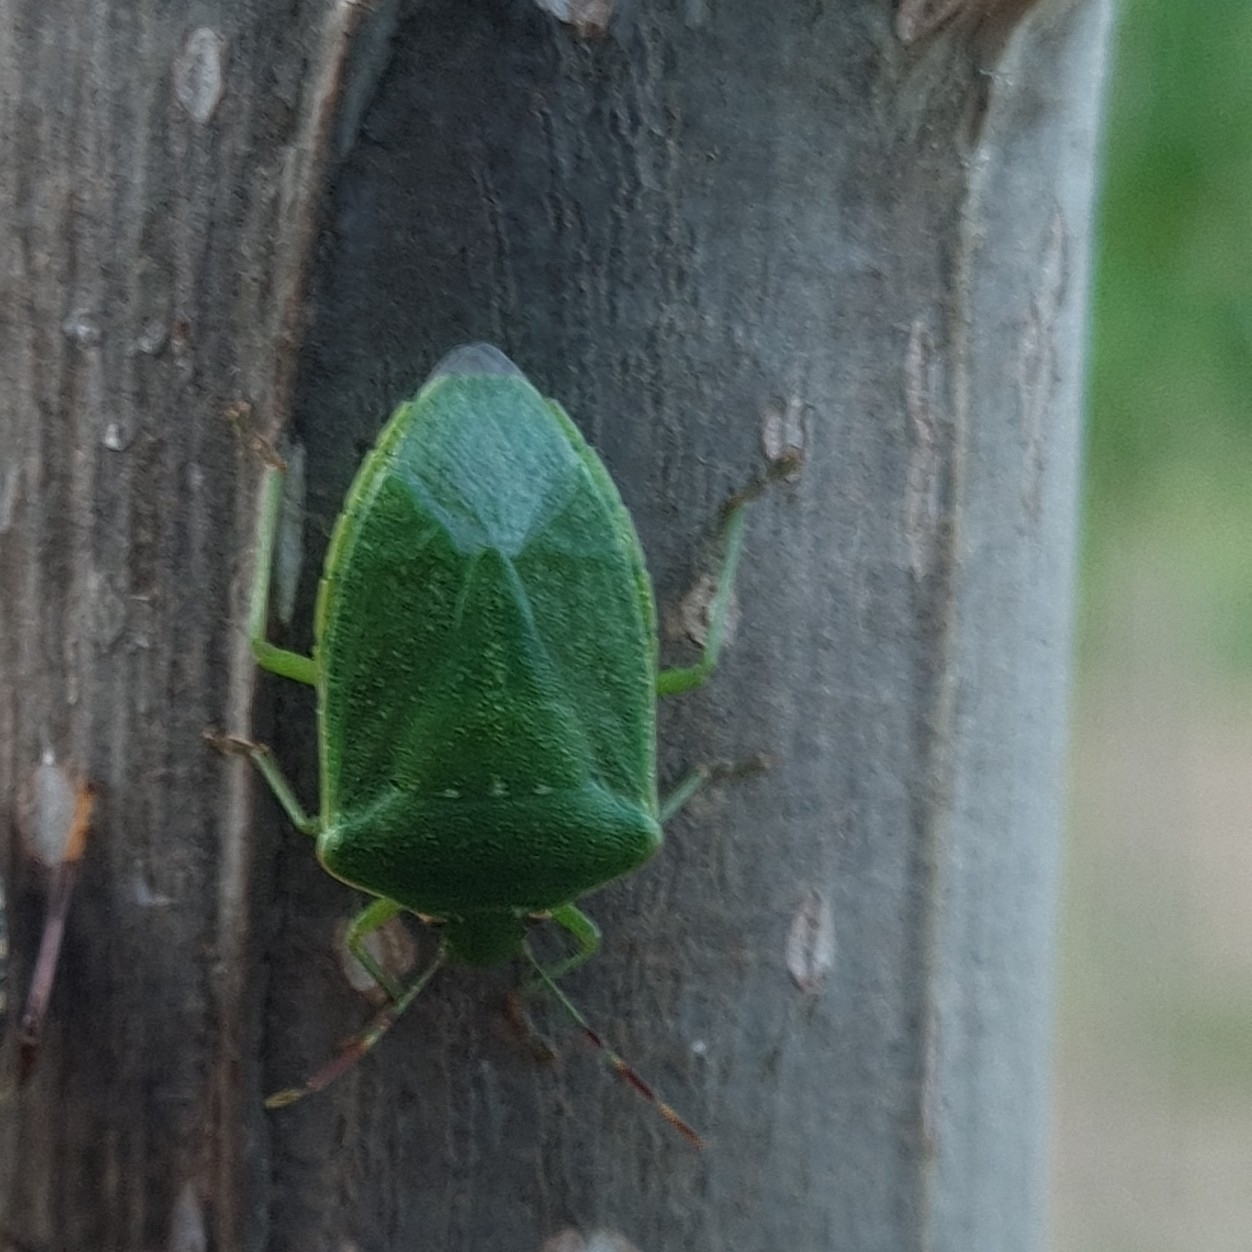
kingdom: Animalia
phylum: Arthropoda
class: Insecta
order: Hemiptera
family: Pentatomidae
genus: Nezara
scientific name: Nezara viridula
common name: Southern green stink bug
